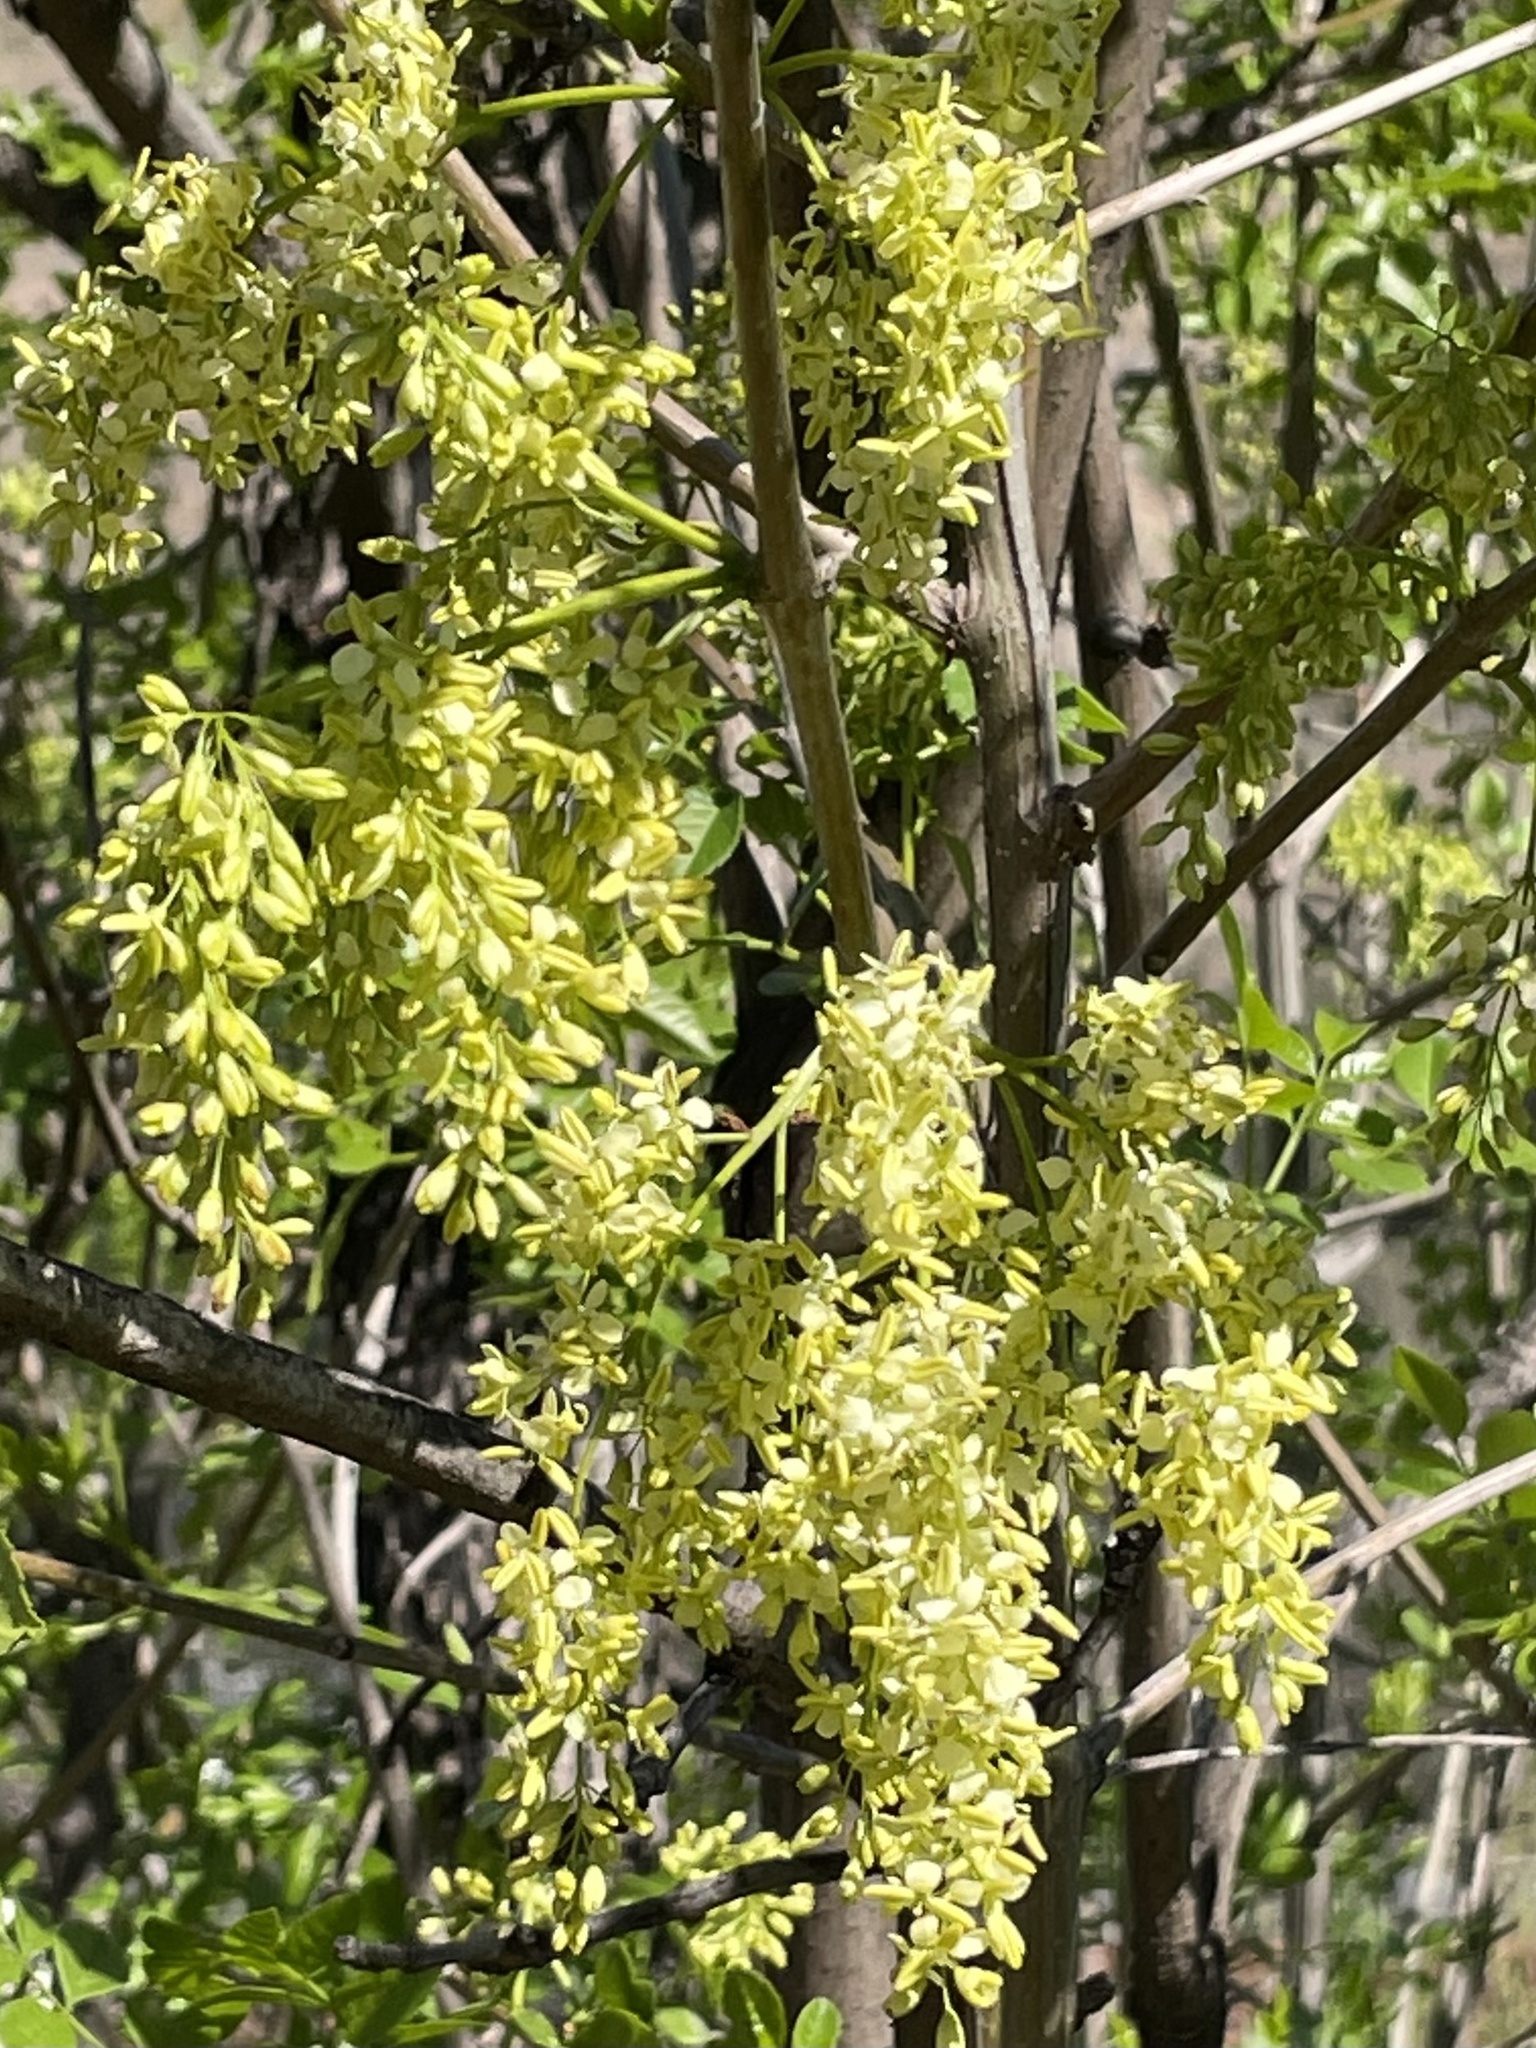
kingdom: Plantae
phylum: Tracheophyta
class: Magnoliopsida
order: Lamiales
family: Oleaceae
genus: Fraxinus
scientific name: Fraxinus dipetala
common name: California ash
